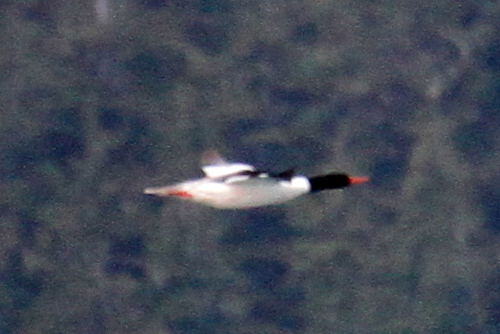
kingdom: Animalia
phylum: Chordata
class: Aves
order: Anseriformes
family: Anatidae
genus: Mergus
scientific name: Mergus merganser
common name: Common merganser
